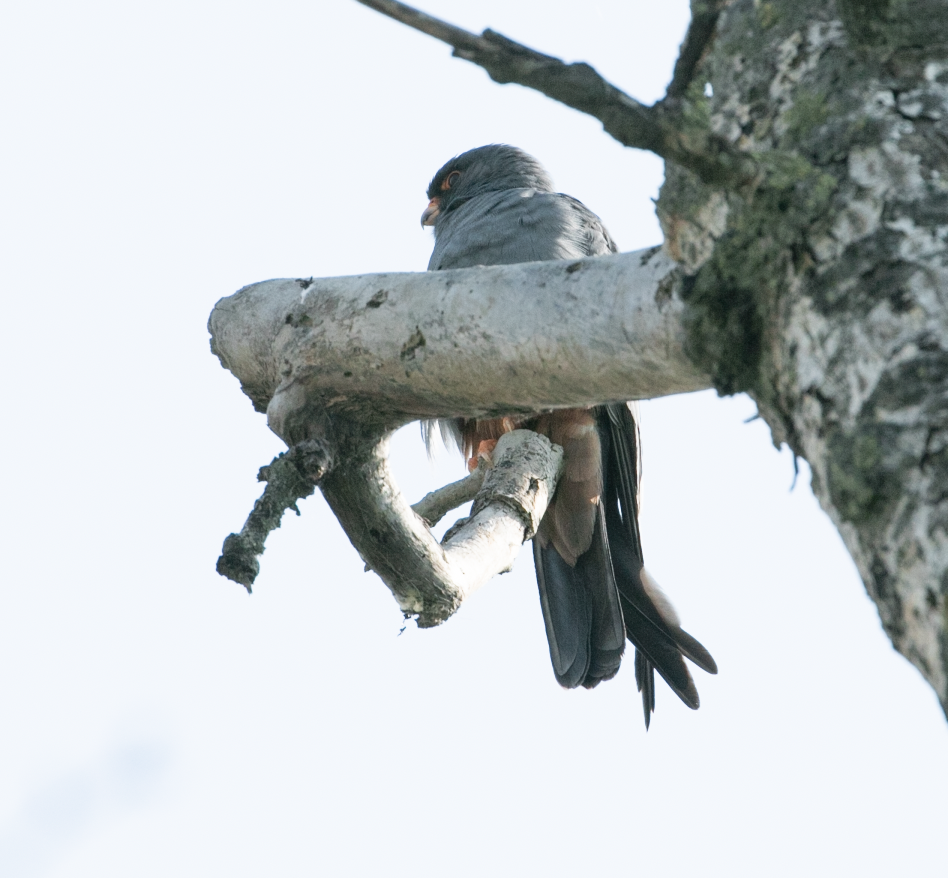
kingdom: Animalia
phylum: Chordata
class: Aves
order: Falconiformes
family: Falconidae
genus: Falco
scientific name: Falco vespertinus
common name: Red-footed falcon
